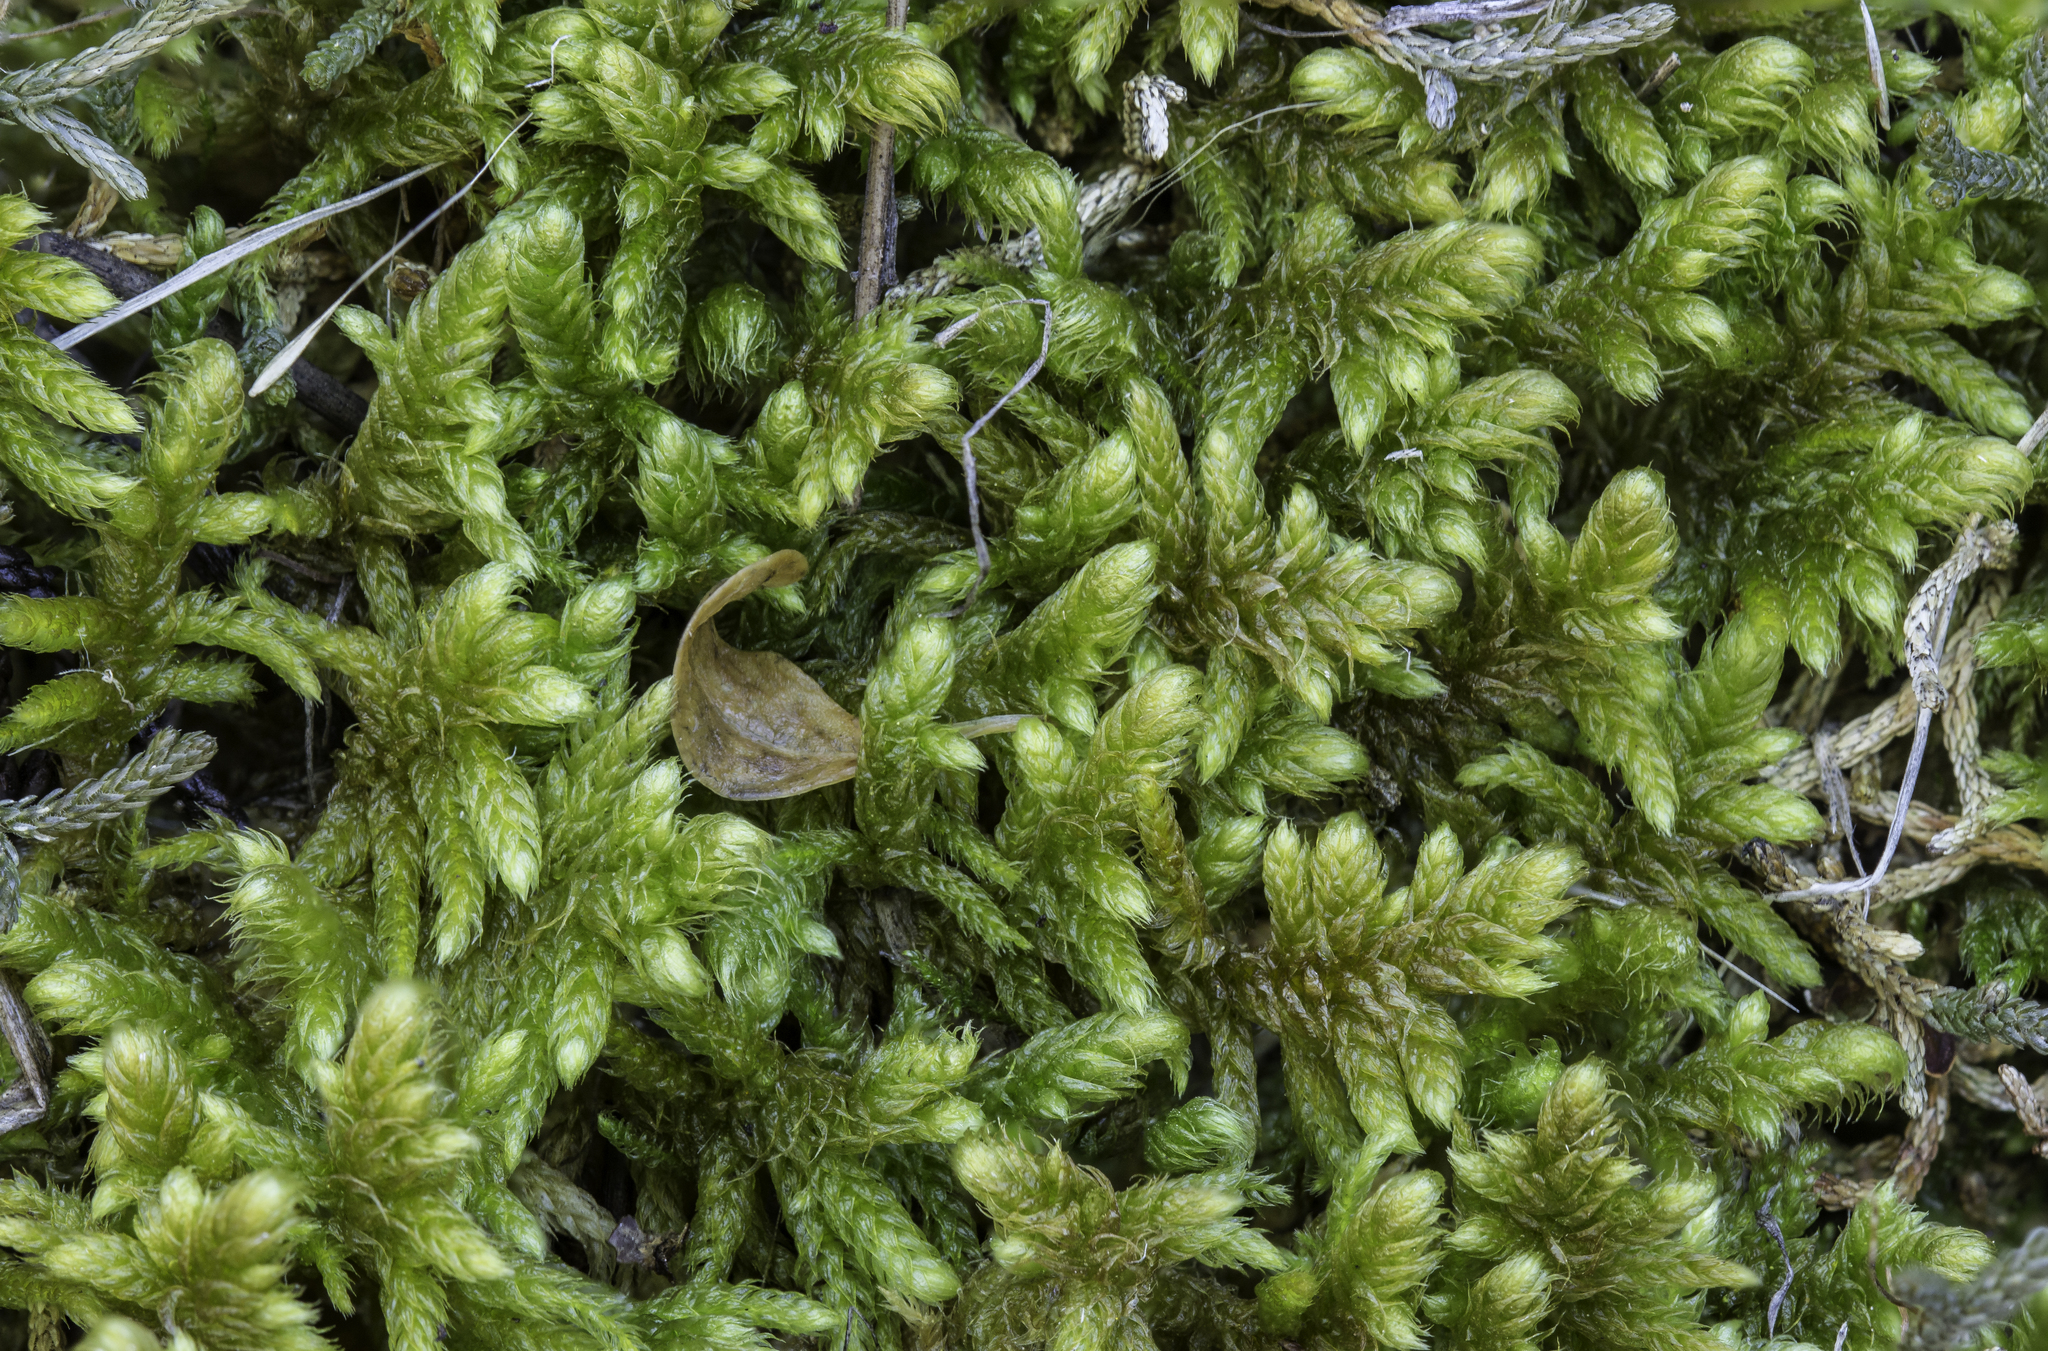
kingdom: Plantae
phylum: Bryophyta
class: Bryopsida
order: Hypnales
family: Rhytidiaceae
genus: Rhytidium
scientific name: Rhytidium rugosum
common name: Wrinkle-leaved moss
